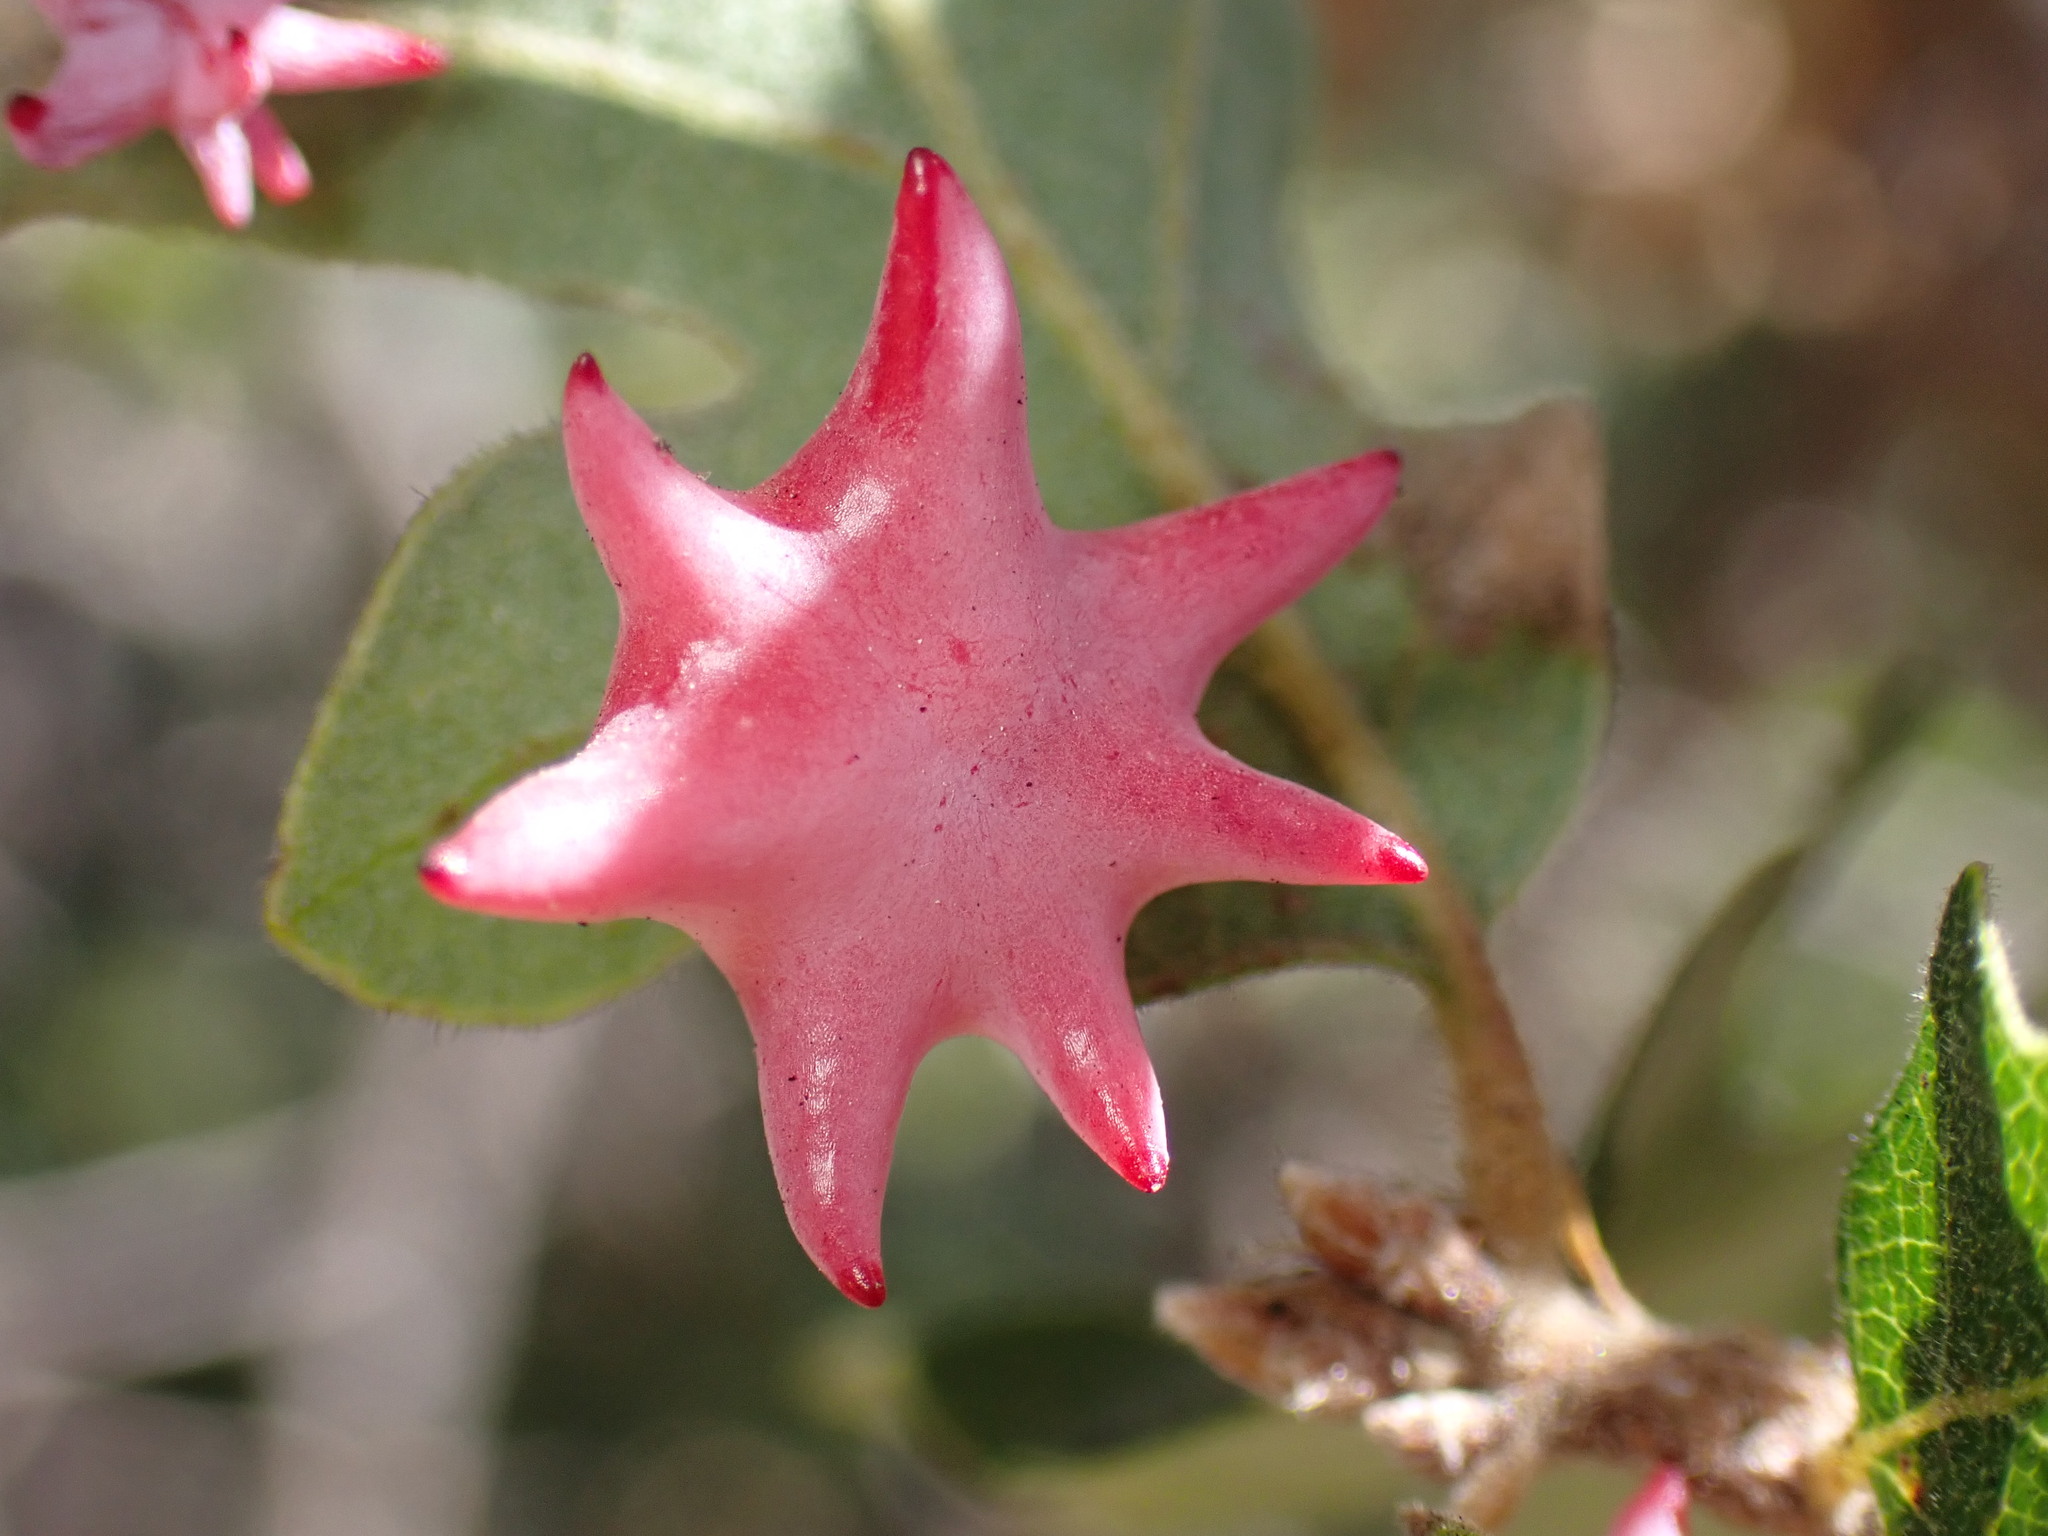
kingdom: Animalia
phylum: Arthropoda
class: Insecta
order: Hymenoptera
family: Cynipidae
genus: Cynips
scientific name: Cynips douglasi
